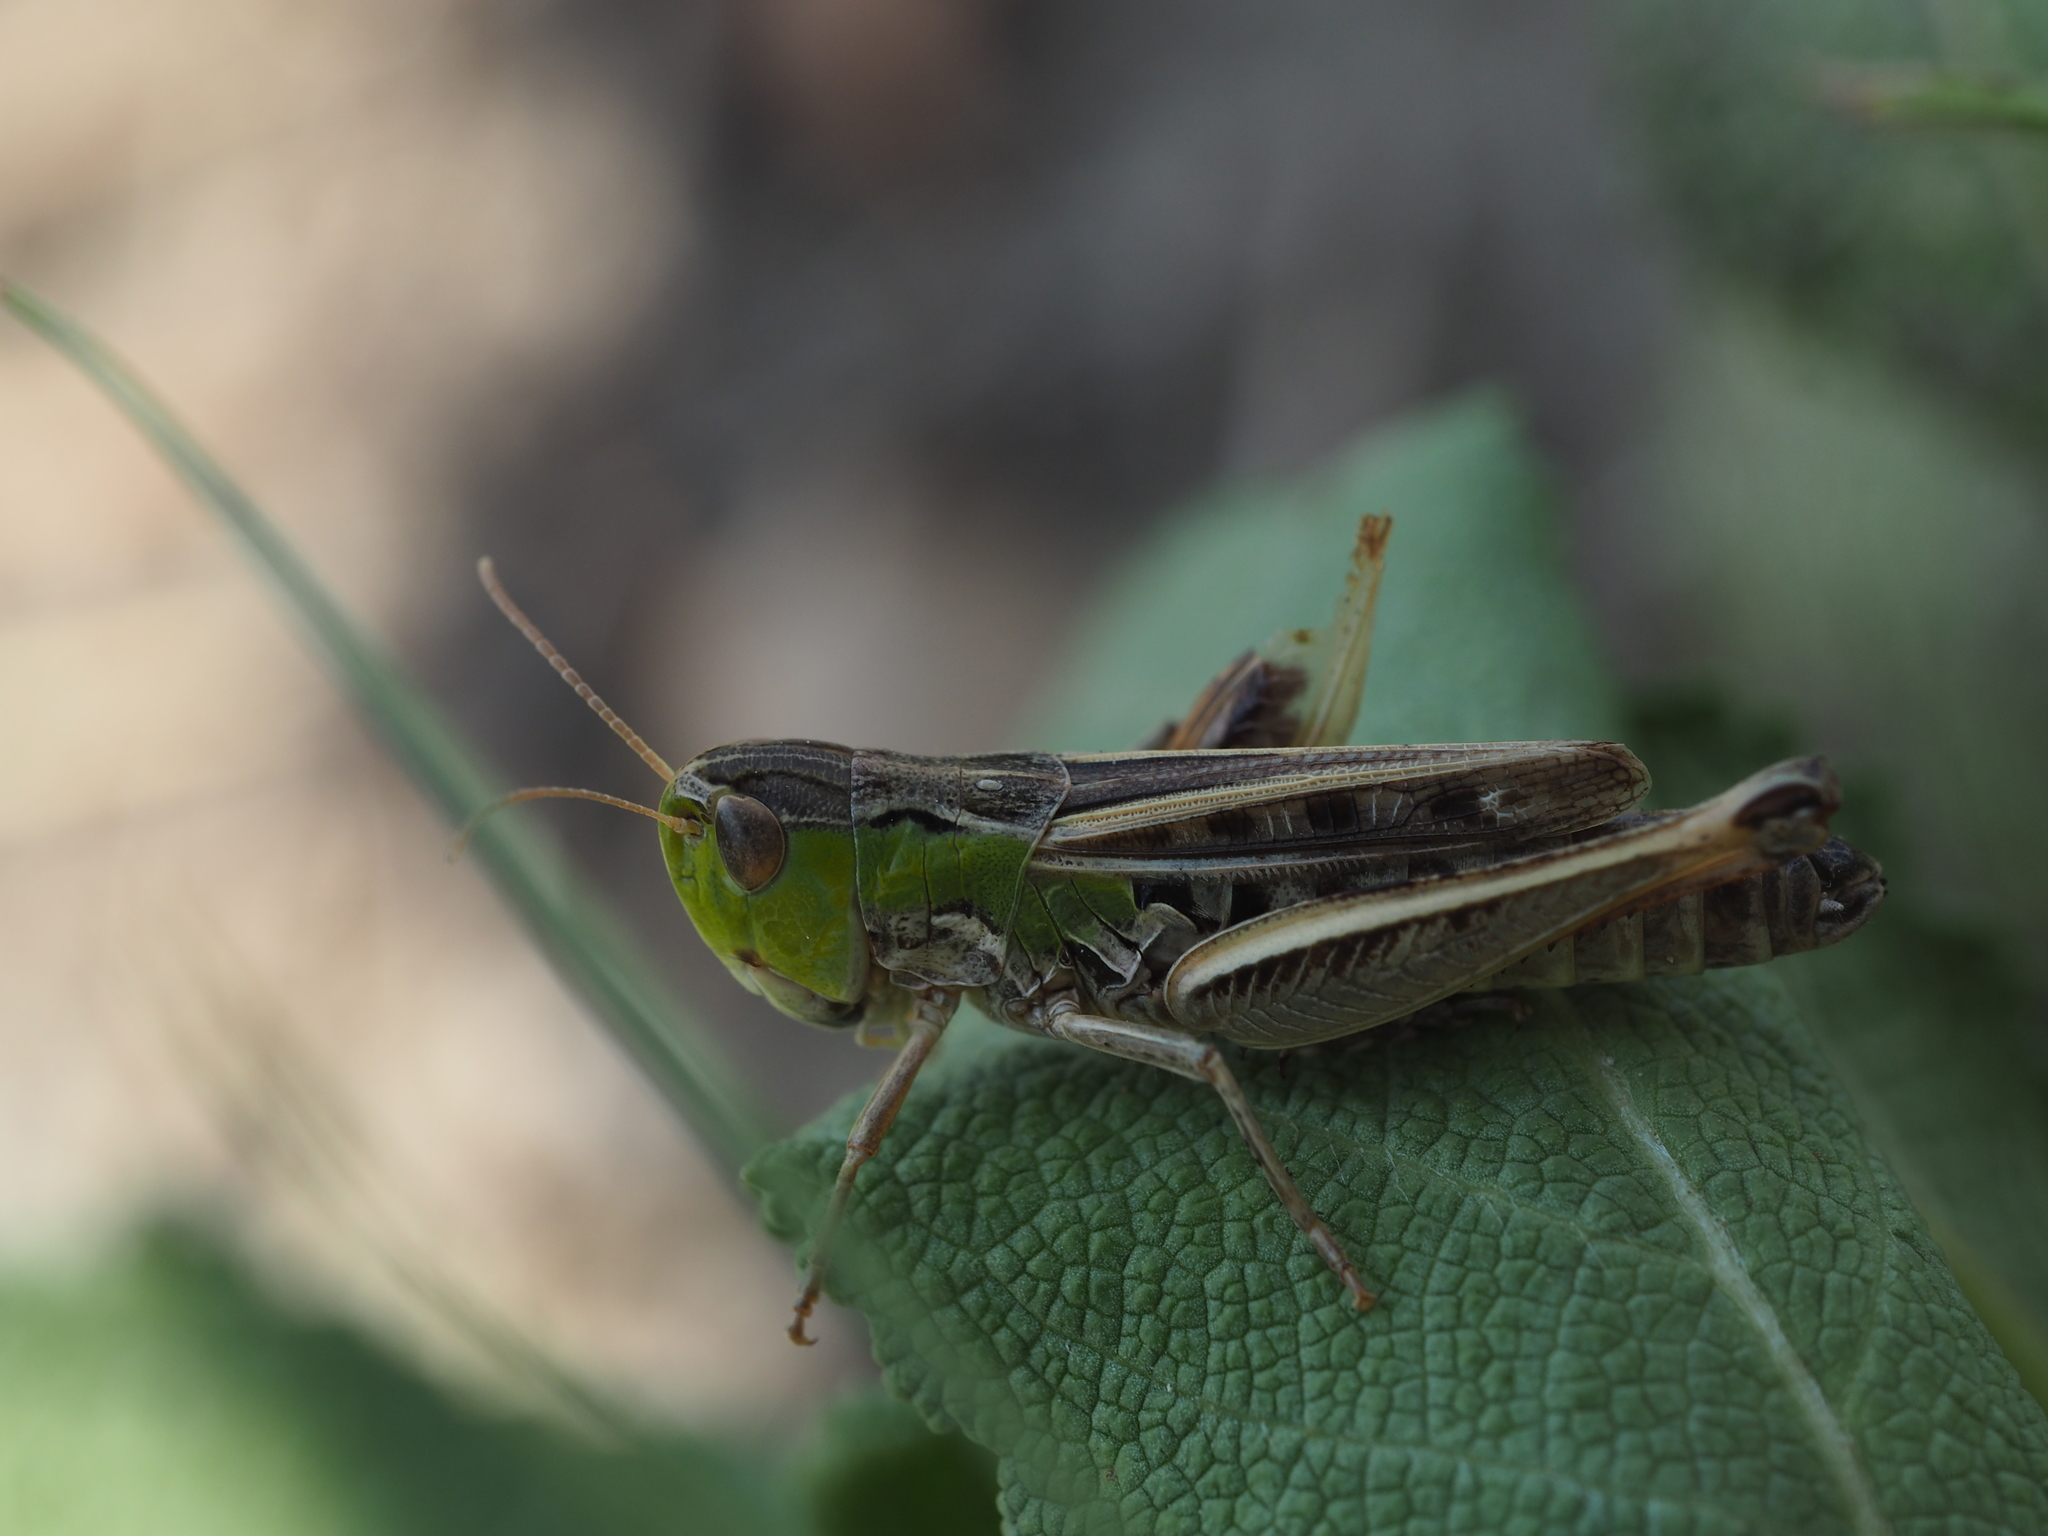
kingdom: Animalia
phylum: Arthropoda
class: Insecta
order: Orthoptera
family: Acrididae
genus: Stenobothrus
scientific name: Stenobothrus nigromaculatus
